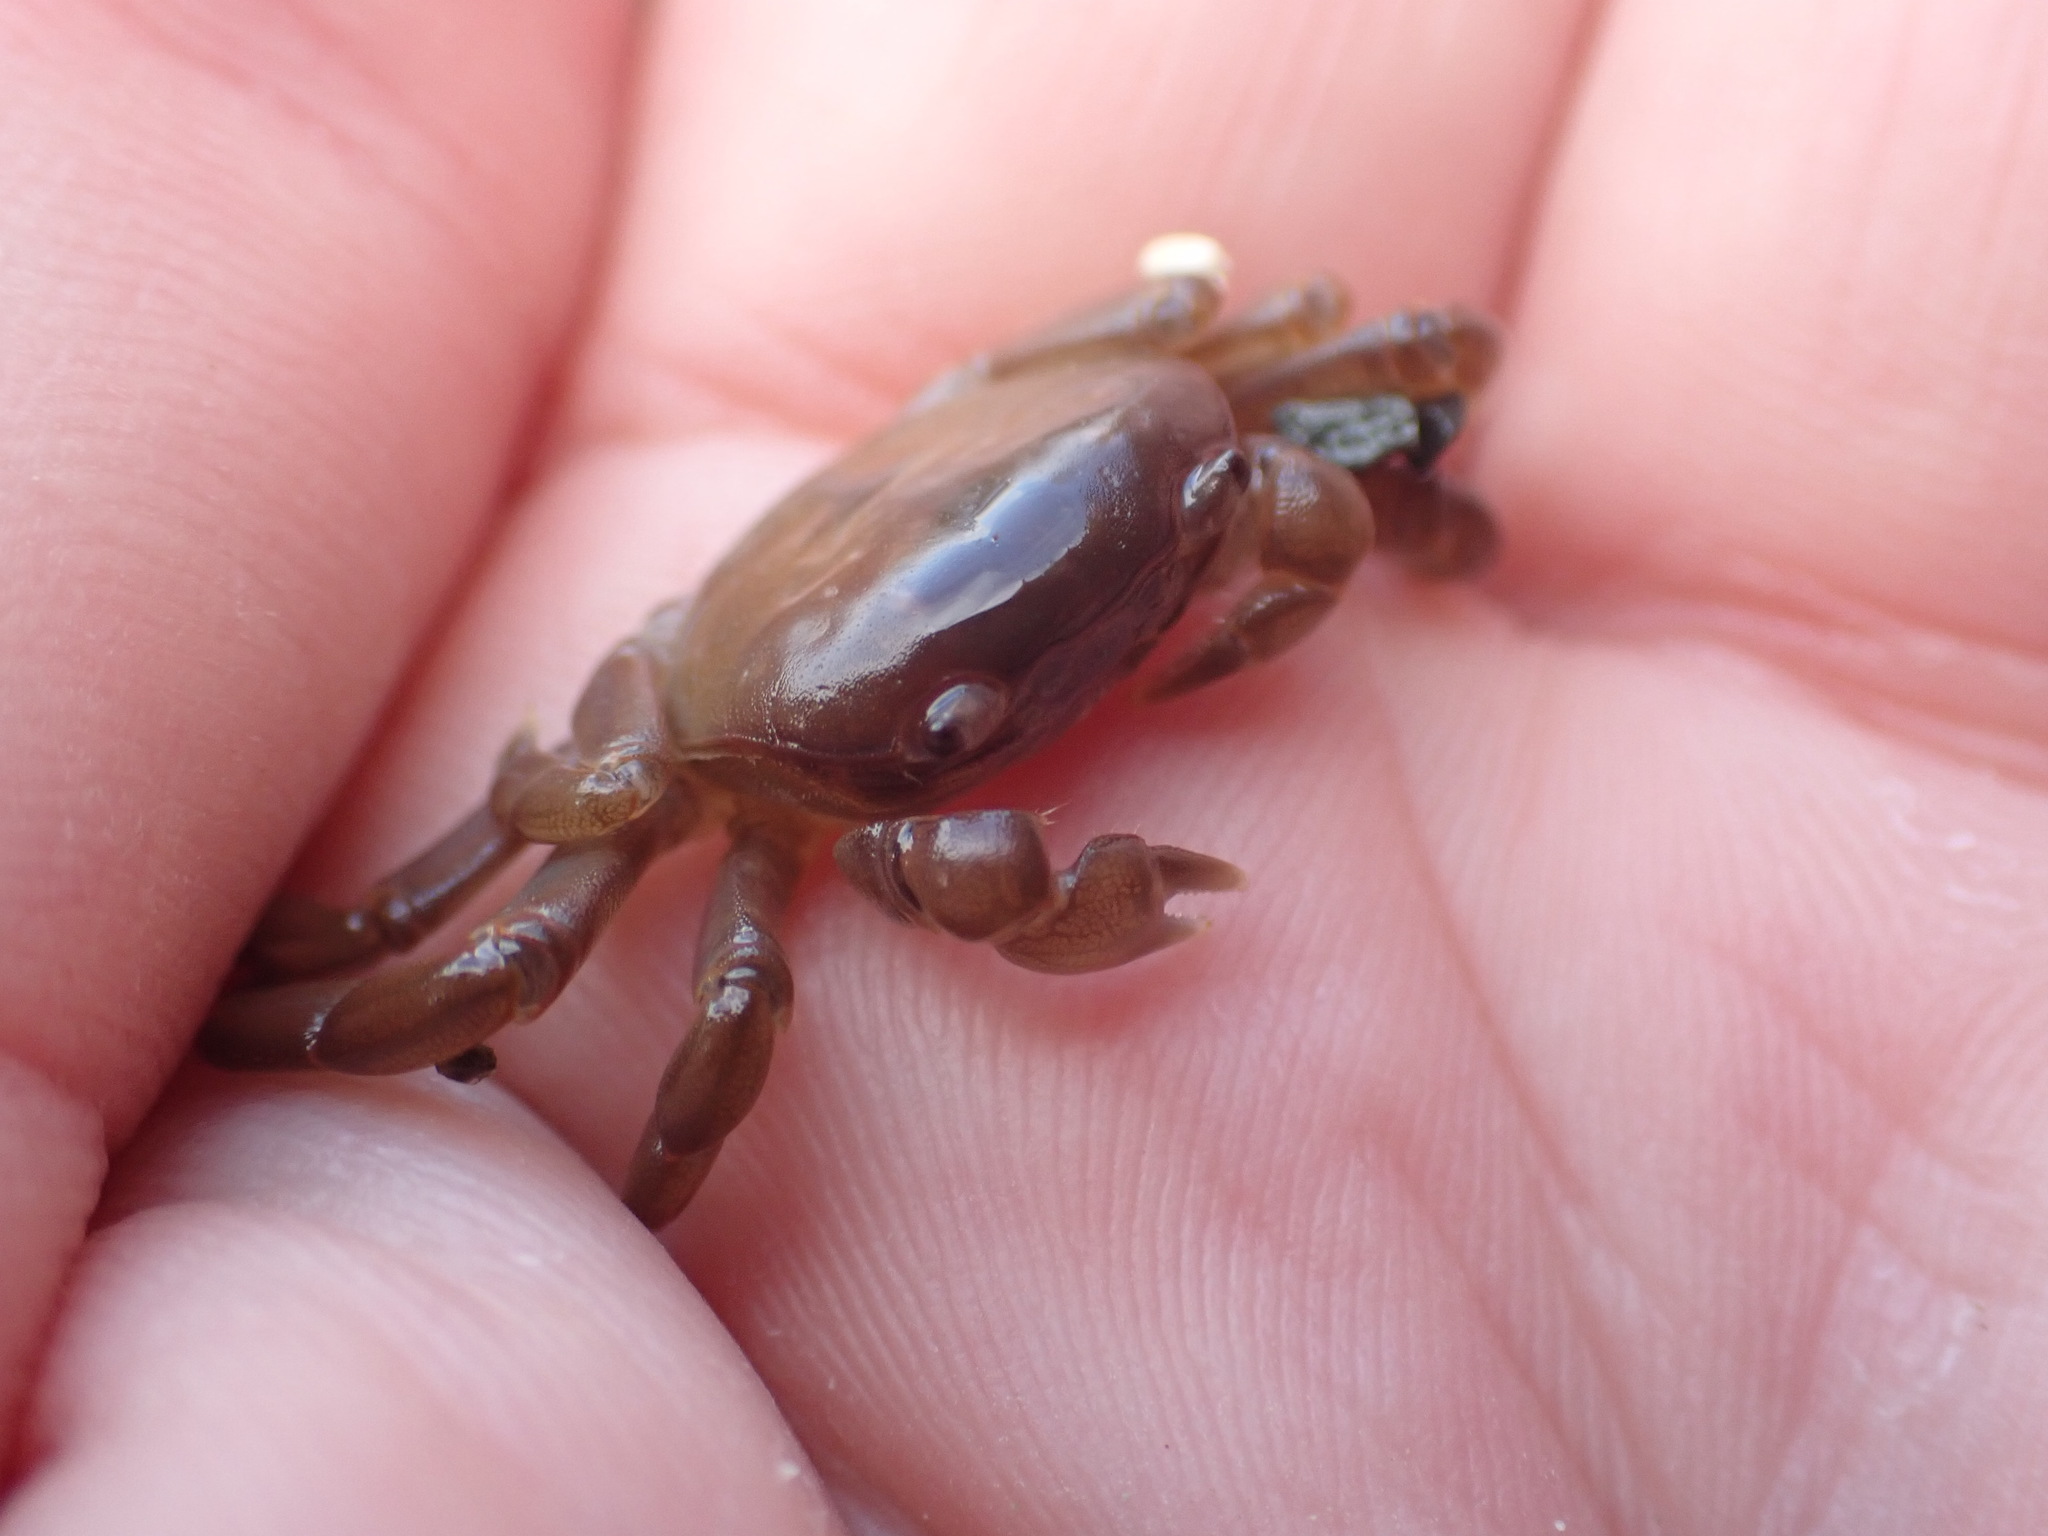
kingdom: Animalia
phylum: Arthropoda
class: Malacostraca
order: Decapoda
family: Varunidae
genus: Cyclograpsus
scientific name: Cyclograpsus insularum
